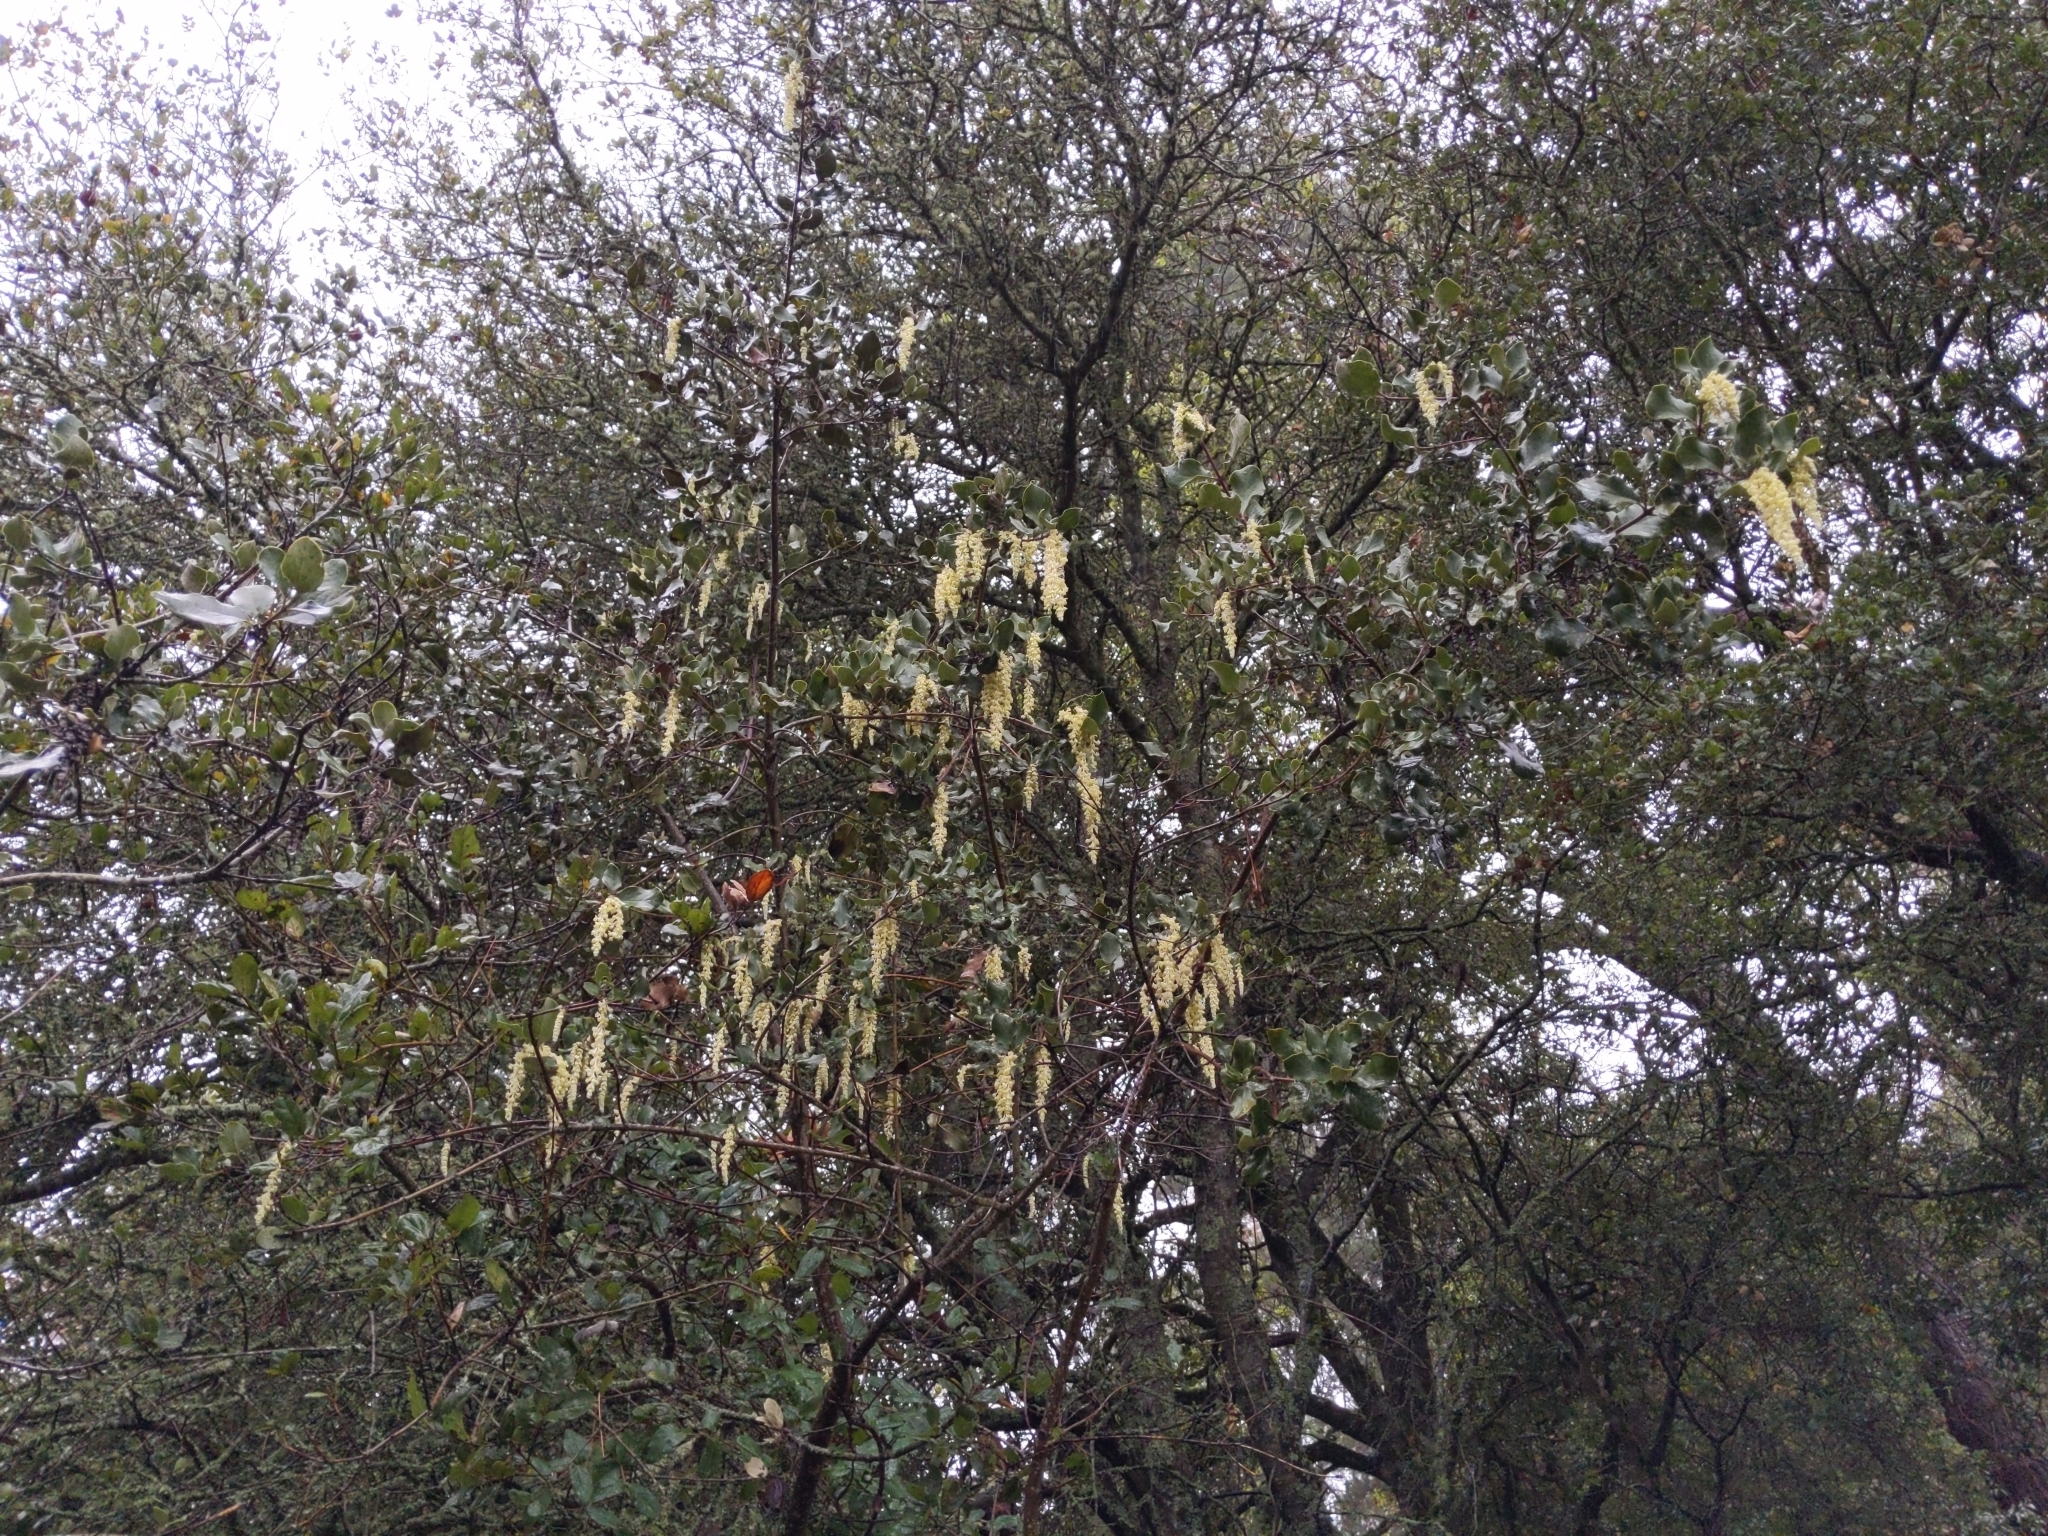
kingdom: Plantae
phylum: Tracheophyta
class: Magnoliopsida
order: Garryales
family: Garryaceae
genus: Garrya
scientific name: Garrya elliptica
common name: Silk-tassel
